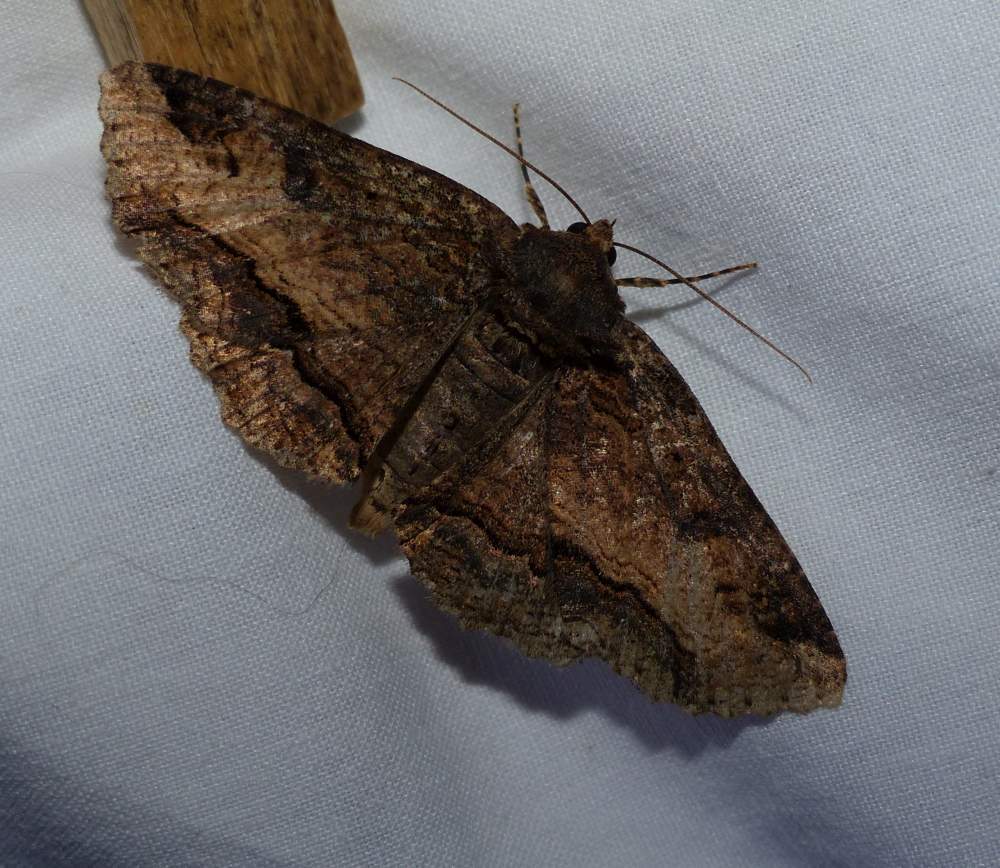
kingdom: Animalia
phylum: Arthropoda
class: Insecta
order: Lepidoptera
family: Erebidae
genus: Zale
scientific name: Zale minerea
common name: Colorful zale moth
